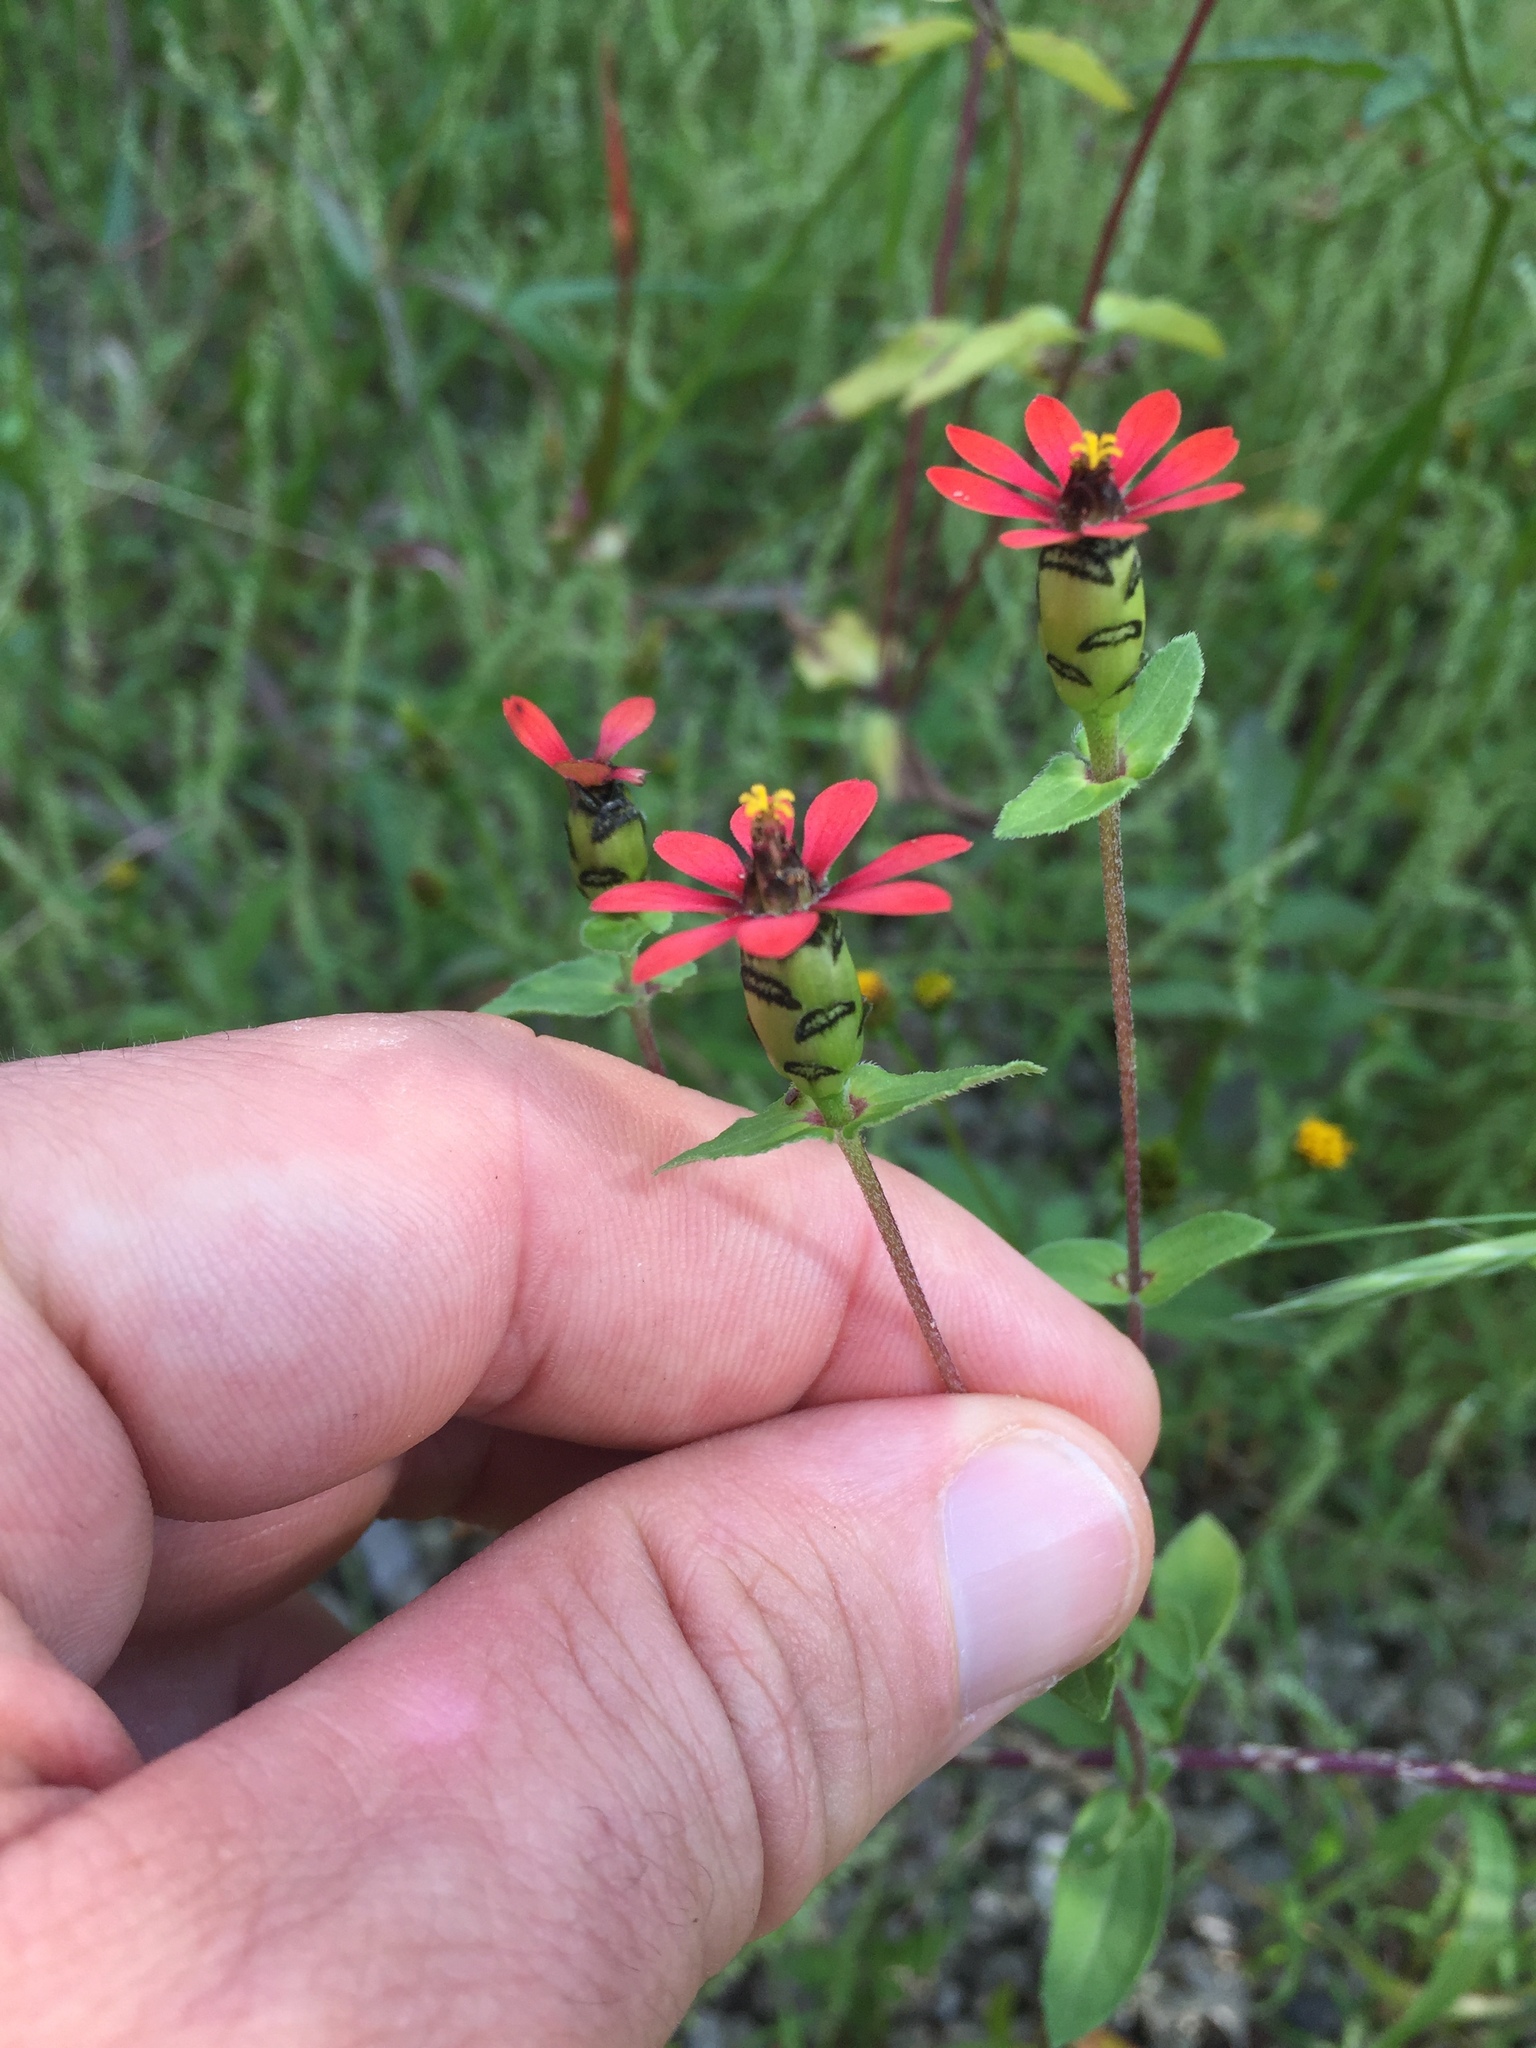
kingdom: Plantae
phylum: Tracheophyta
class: Magnoliopsida
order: Asterales
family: Asteraceae
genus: Zinnia
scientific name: Zinnia peruviana
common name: Peruvian zinnia
